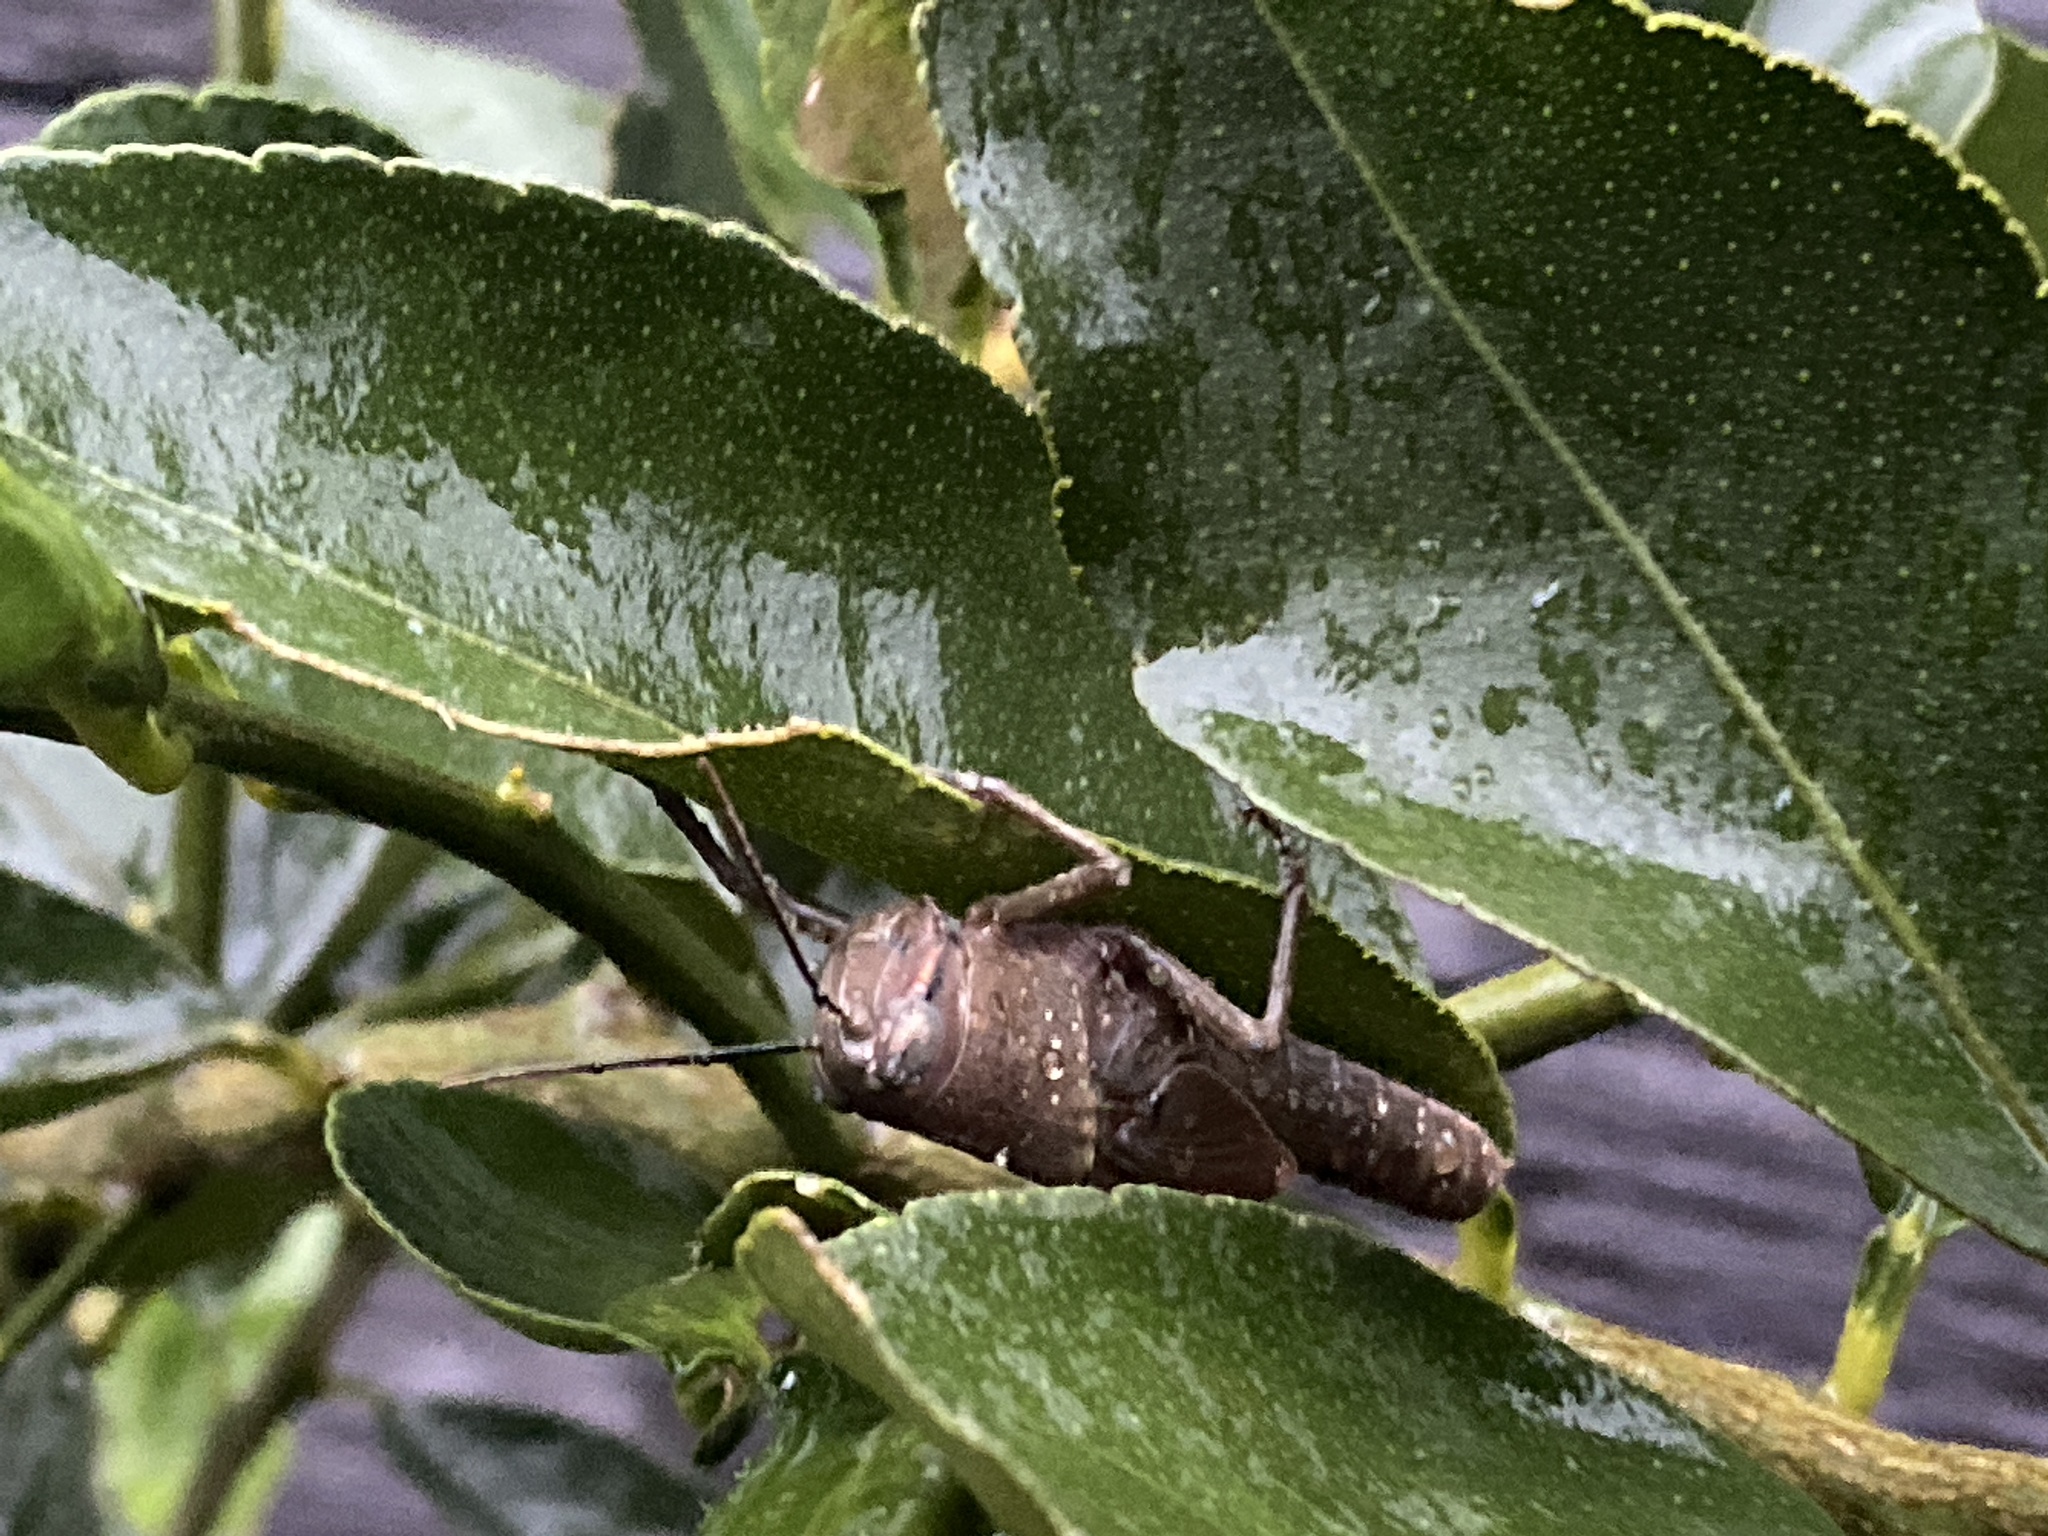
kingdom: Animalia
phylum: Arthropoda
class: Insecta
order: Orthoptera
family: Acrididae
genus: Valanga
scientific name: Valanga irregularis
